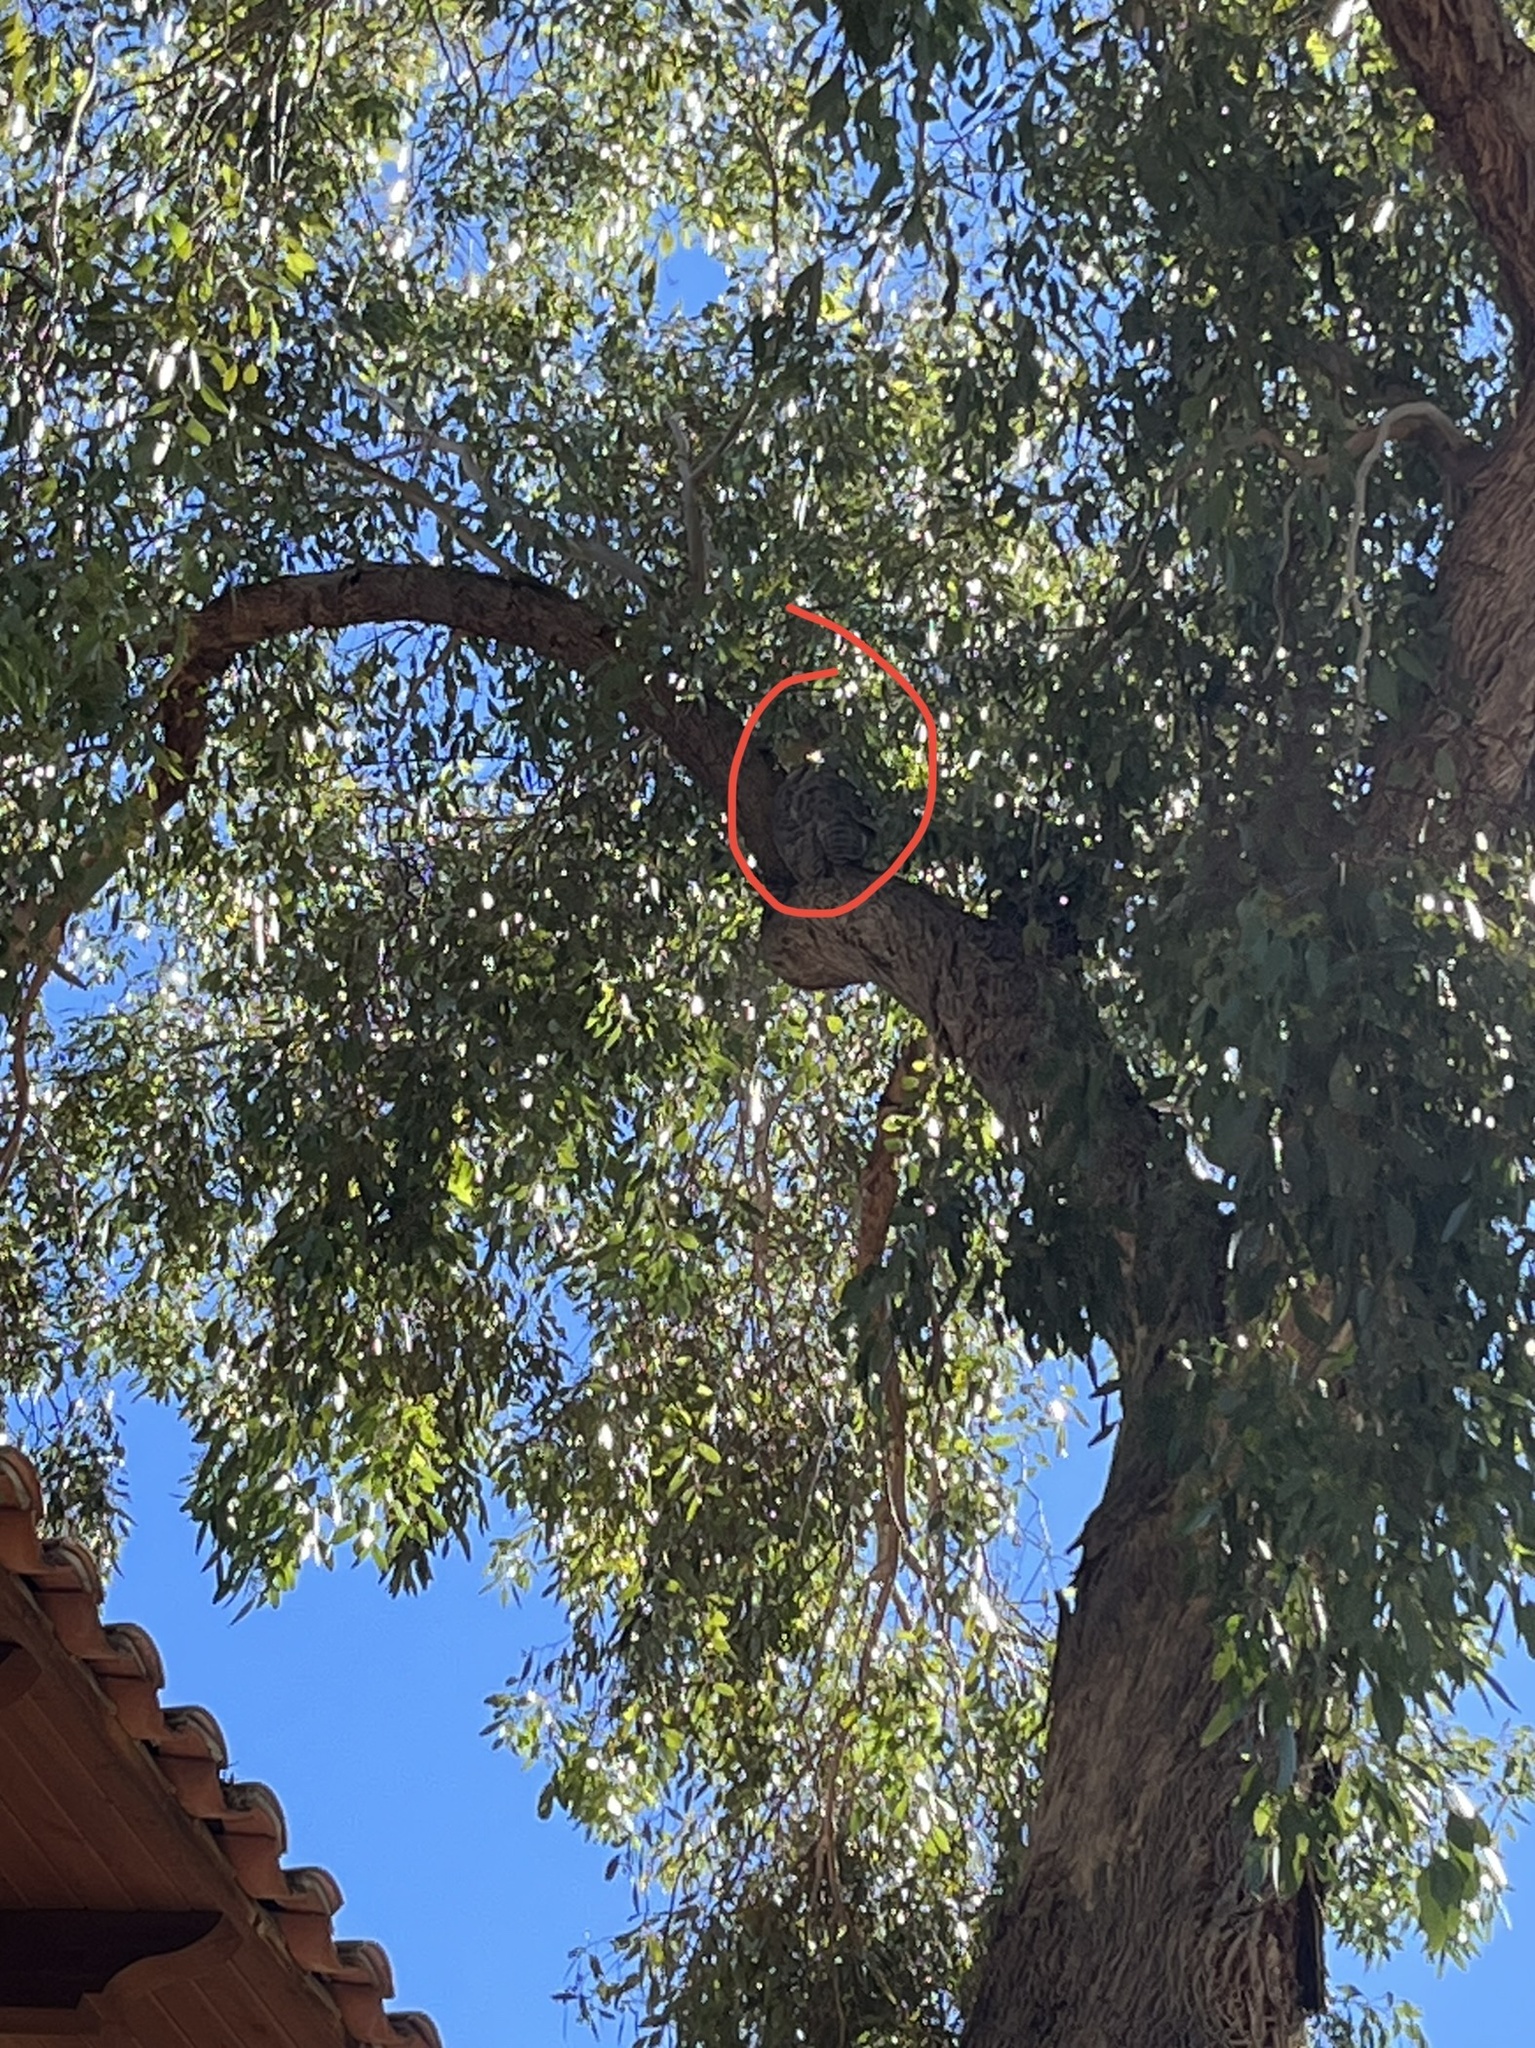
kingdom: Animalia
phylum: Chordata
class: Aves
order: Strigiformes
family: Strigidae
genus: Bubo
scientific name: Bubo virginianus
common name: Great horned owl
